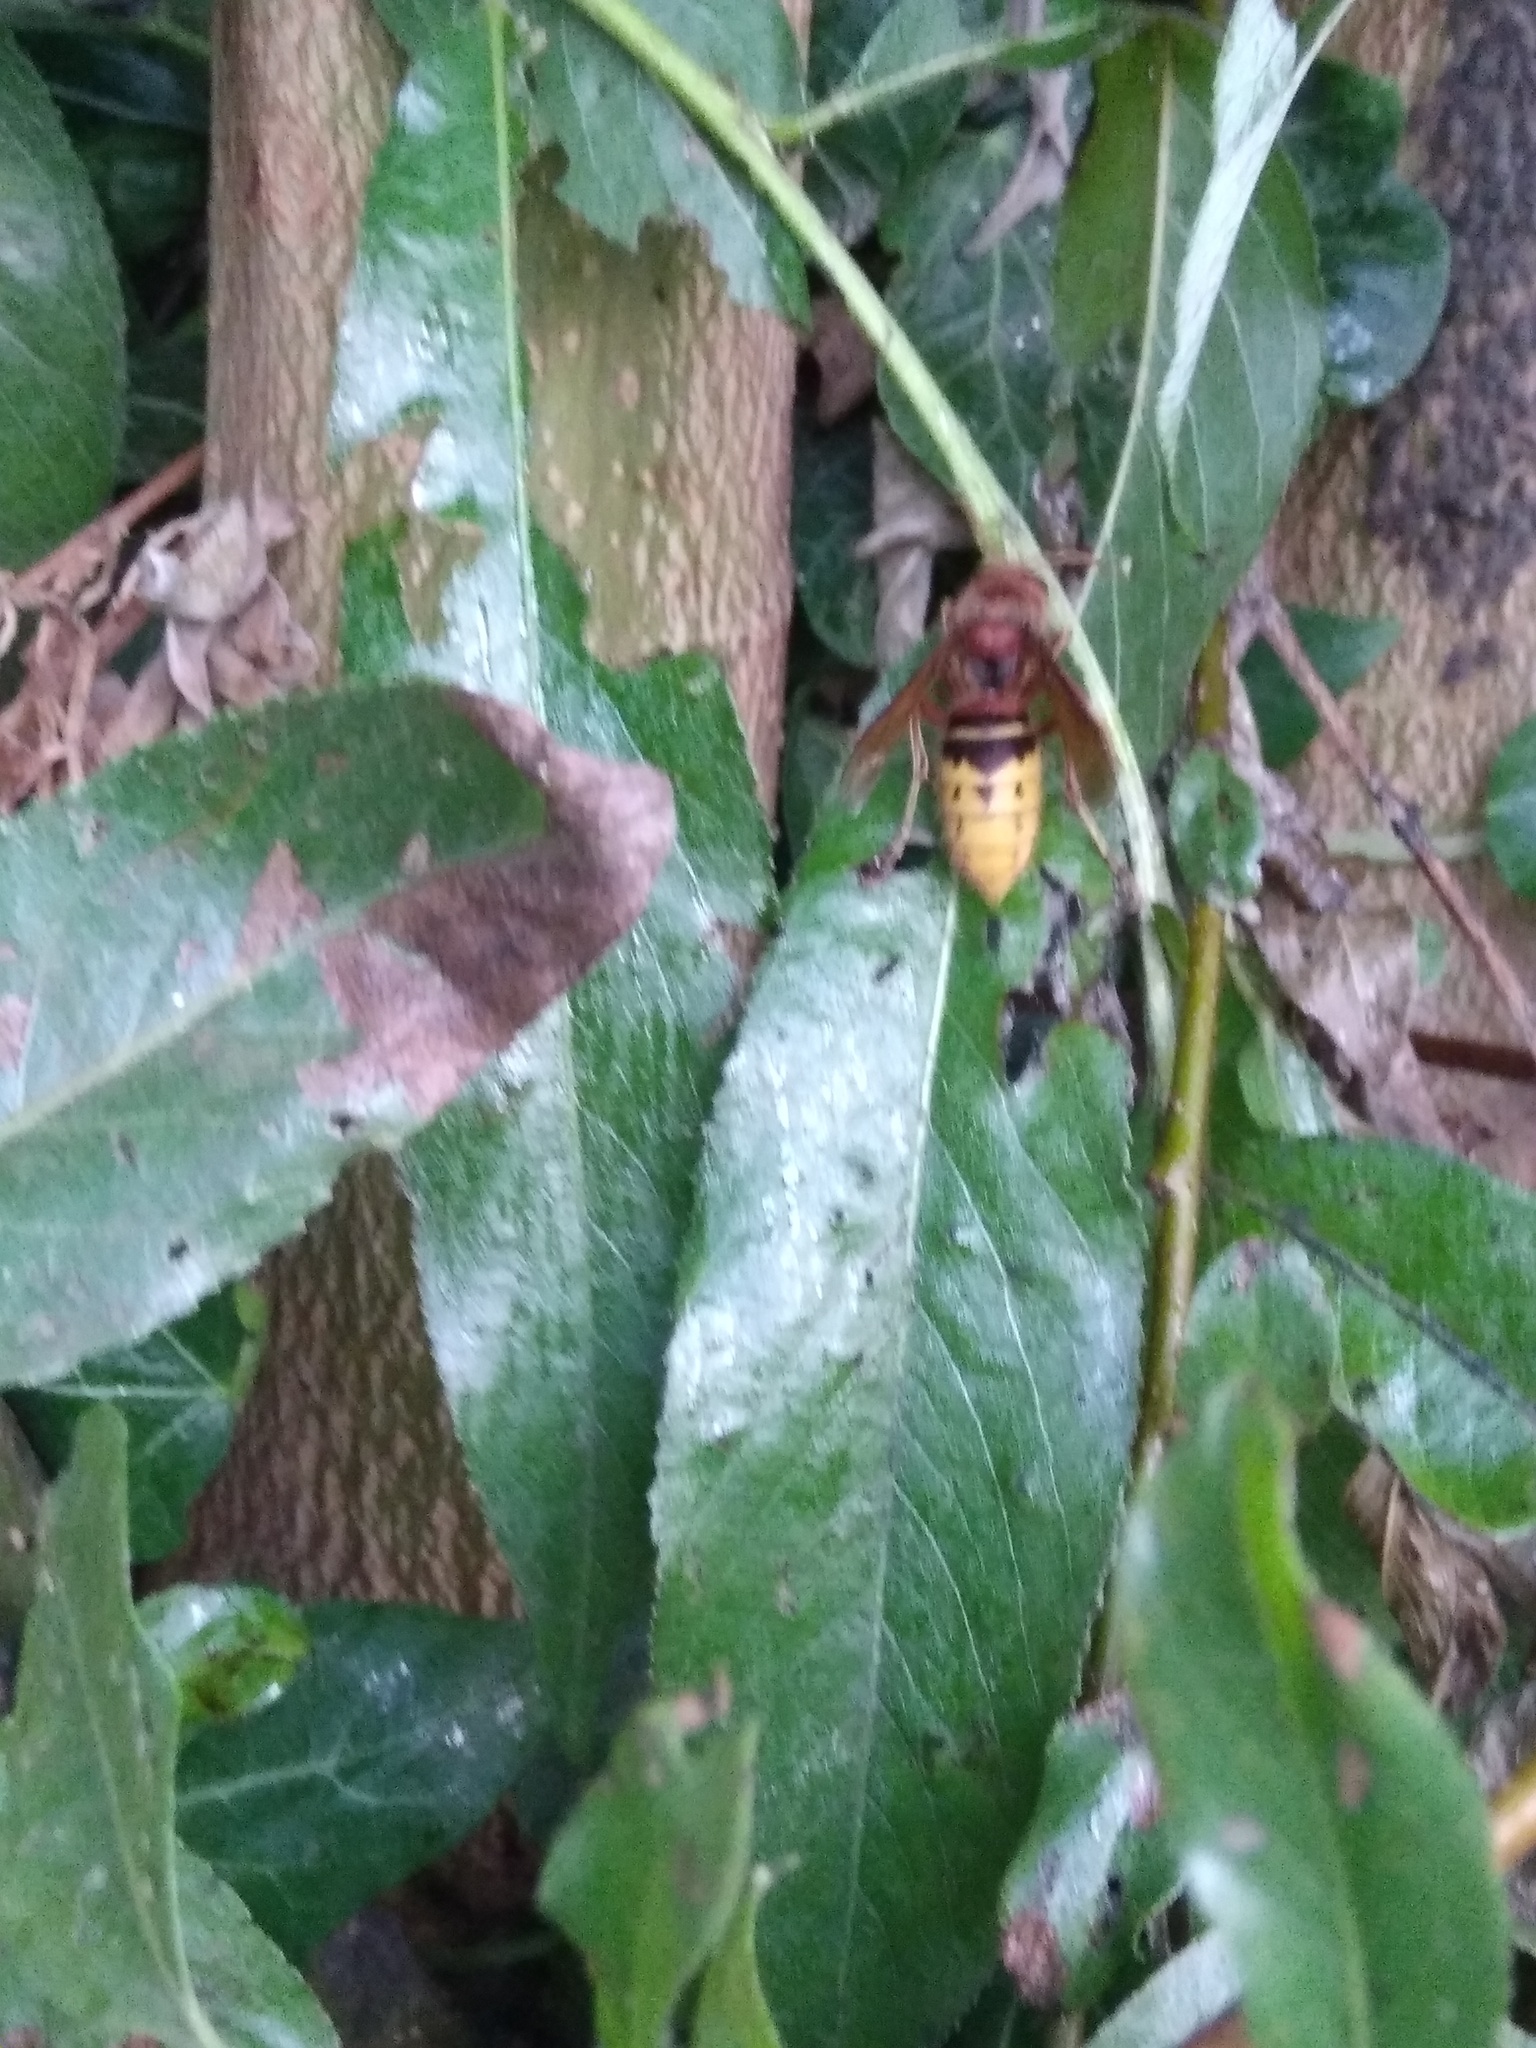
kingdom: Animalia
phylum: Arthropoda
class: Insecta
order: Hymenoptera
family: Vespidae
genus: Vespa
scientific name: Vespa crabro
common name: Hornet
